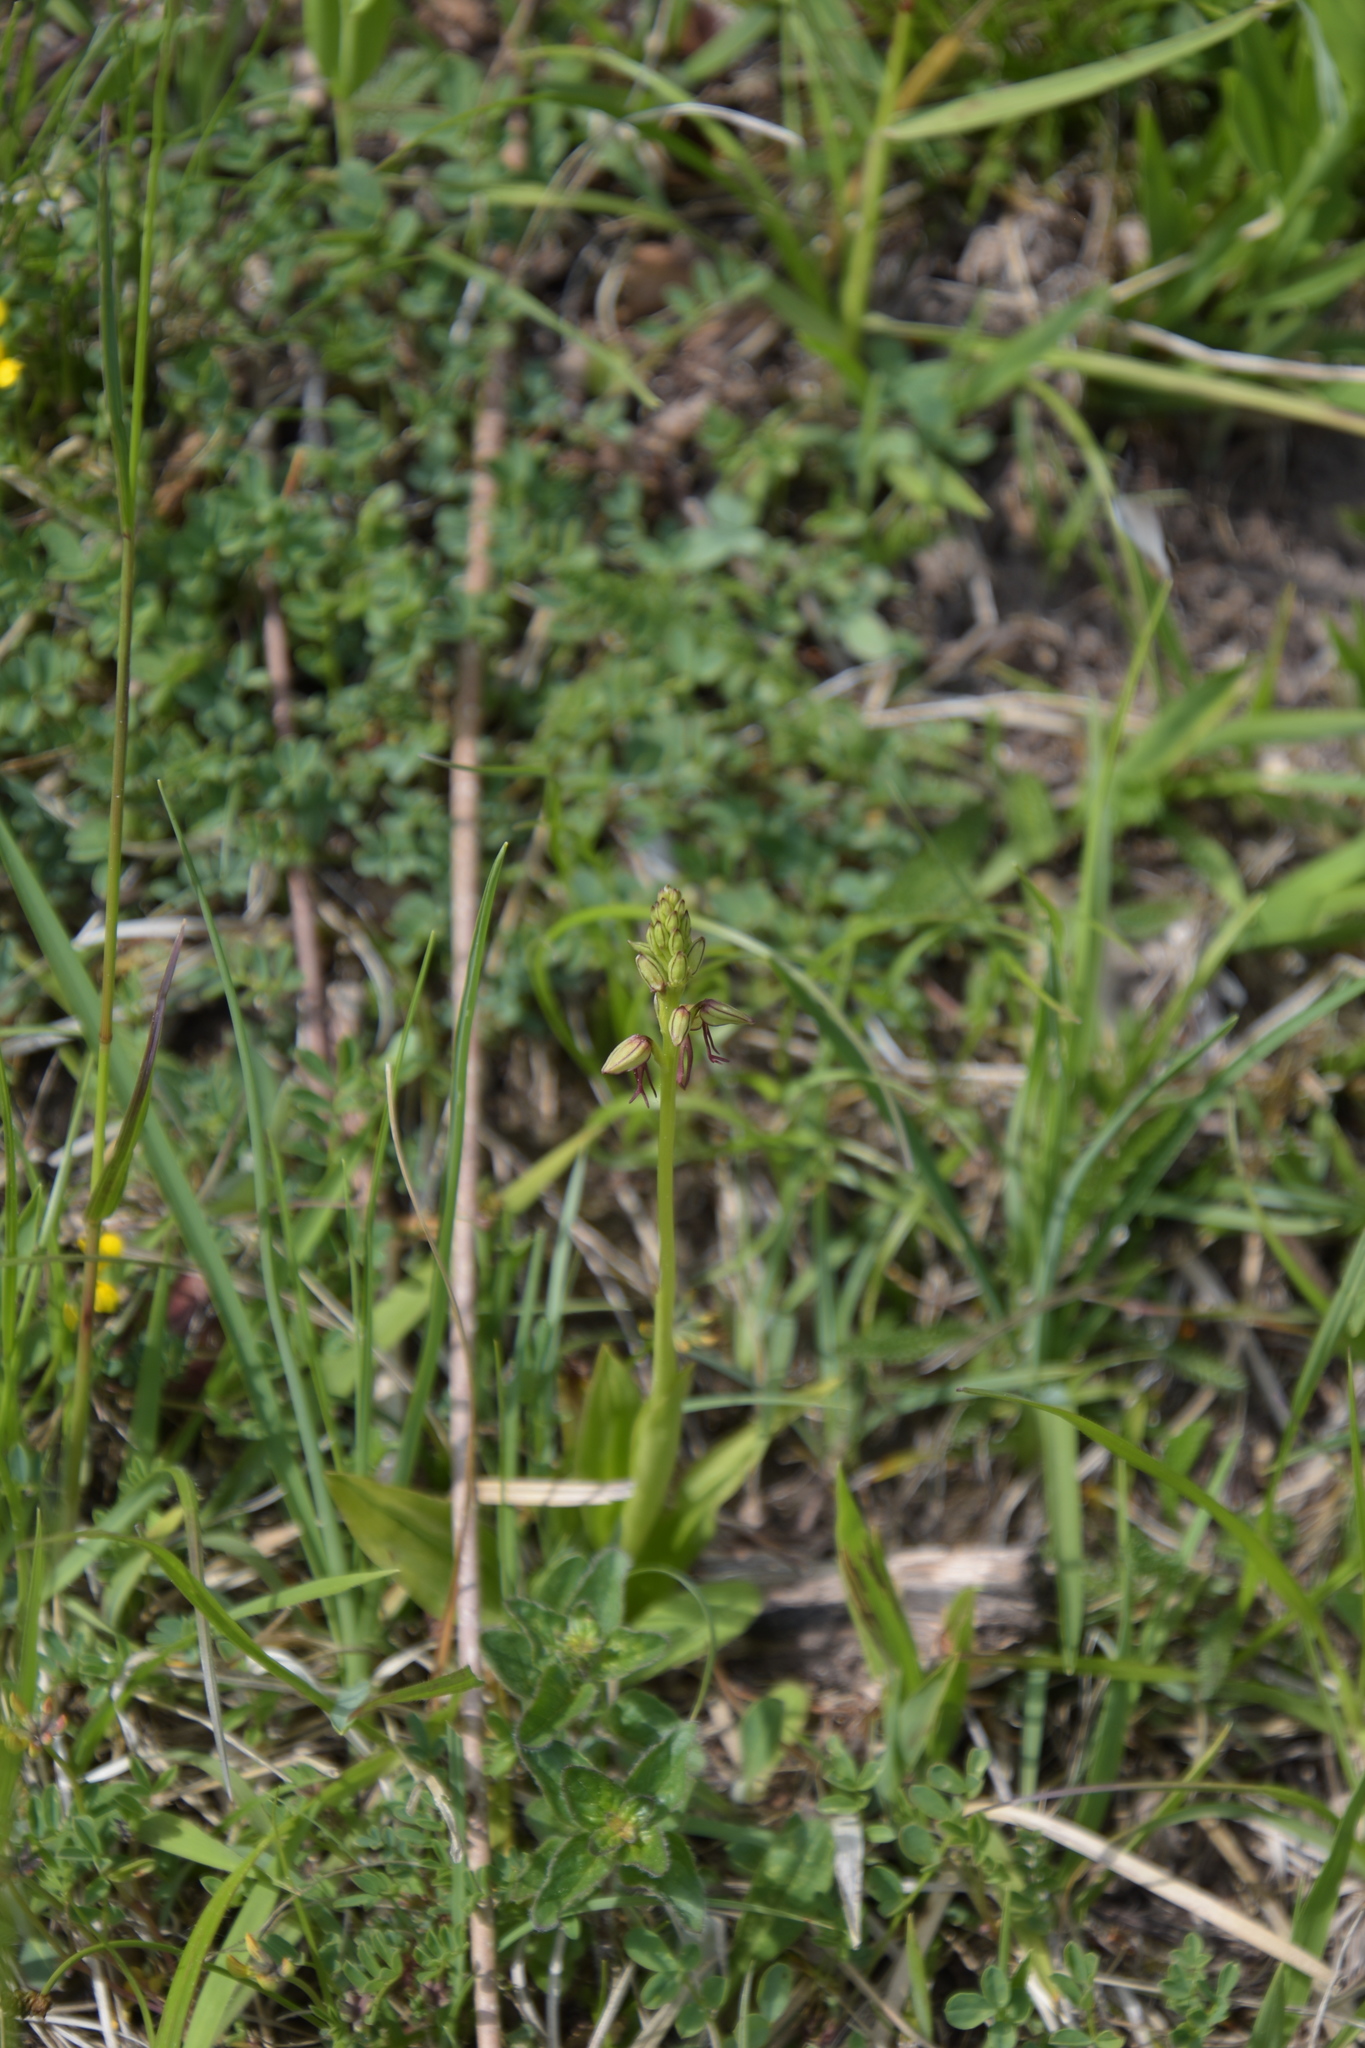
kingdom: Plantae
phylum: Tracheophyta
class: Liliopsida
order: Asparagales
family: Orchidaceae
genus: Orchis
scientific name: Orchis anthropophora
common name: Man orchid
